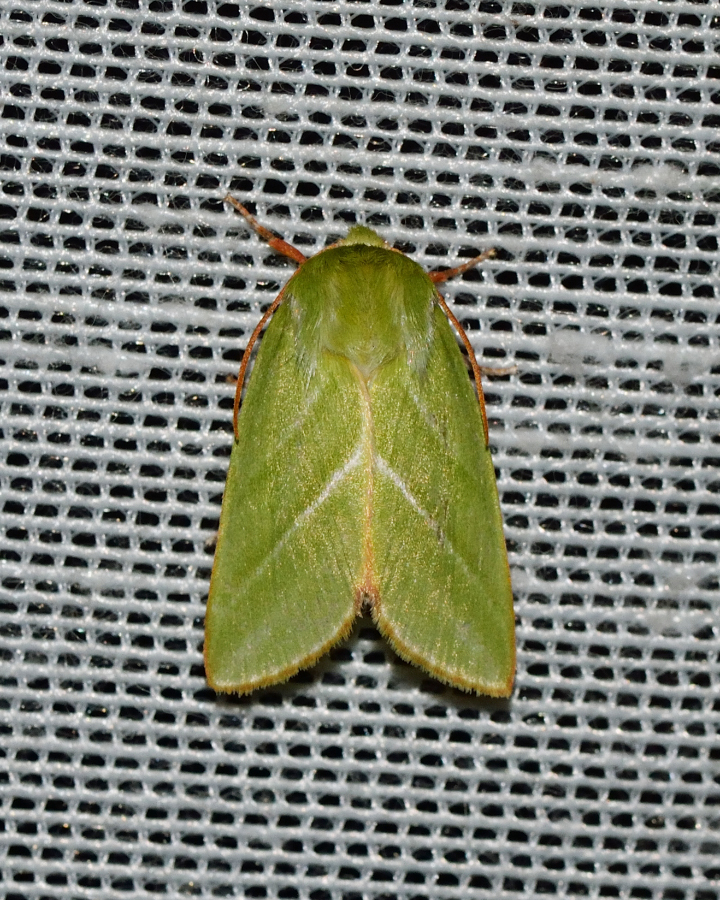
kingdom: Animalia
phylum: Arthropoda
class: Insecta
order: Lepidoptera
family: Nolidae
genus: Pseudoips
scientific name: Pseudoips prasinana
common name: Green silver-lines
